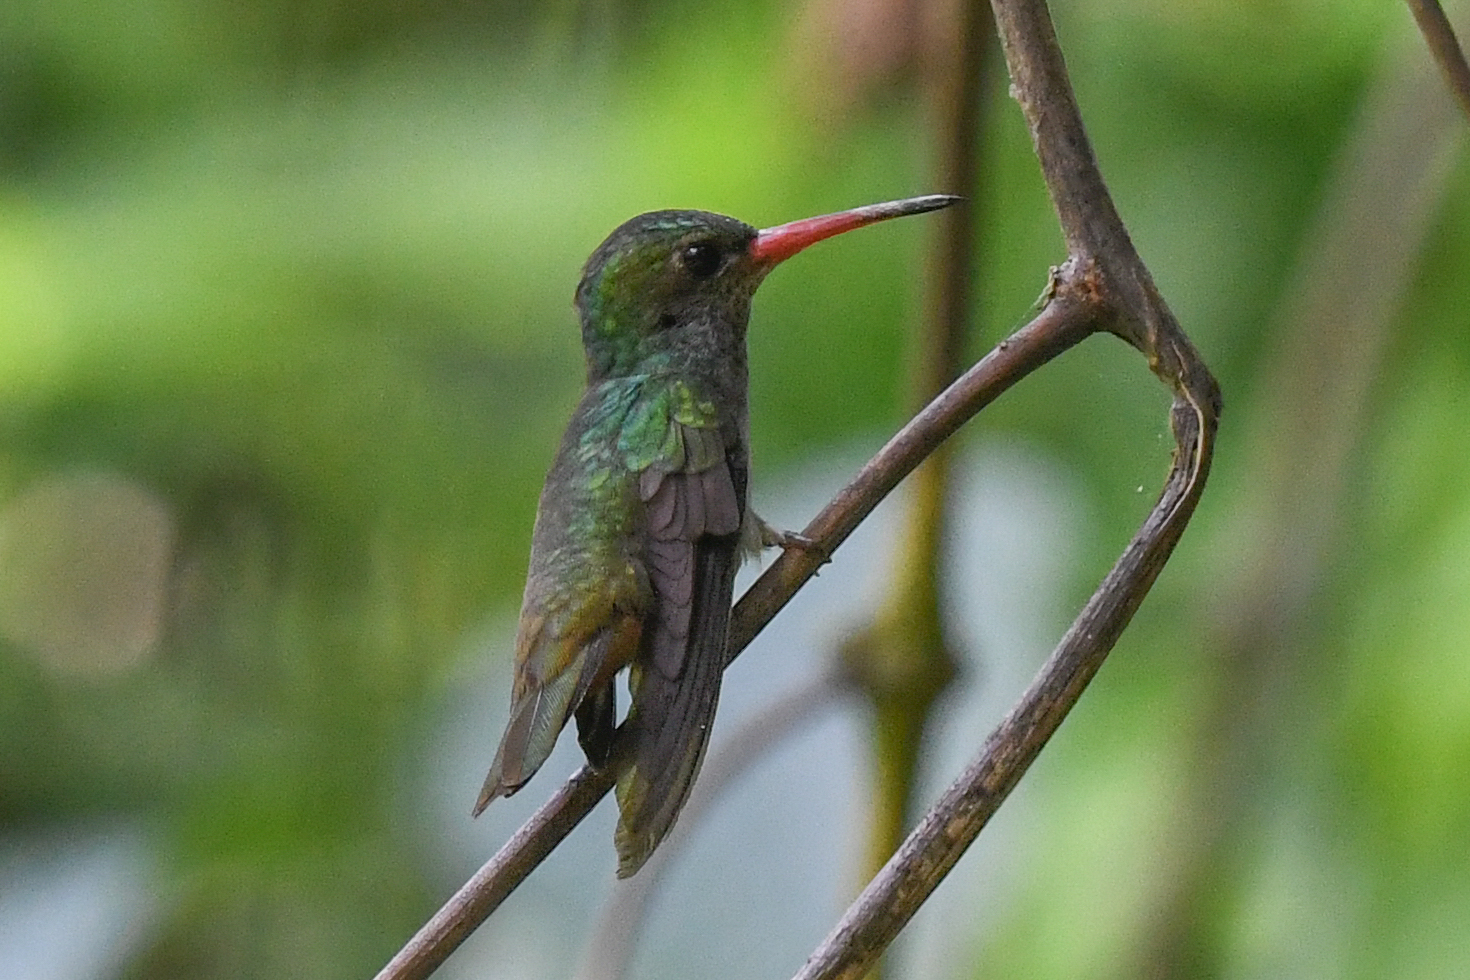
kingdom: Animalia
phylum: Chordata
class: Aves
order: Apodiformes
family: Trochilidae
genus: Chlorestes
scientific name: Chlorestes eliciae
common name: Blue-throated sapphire
